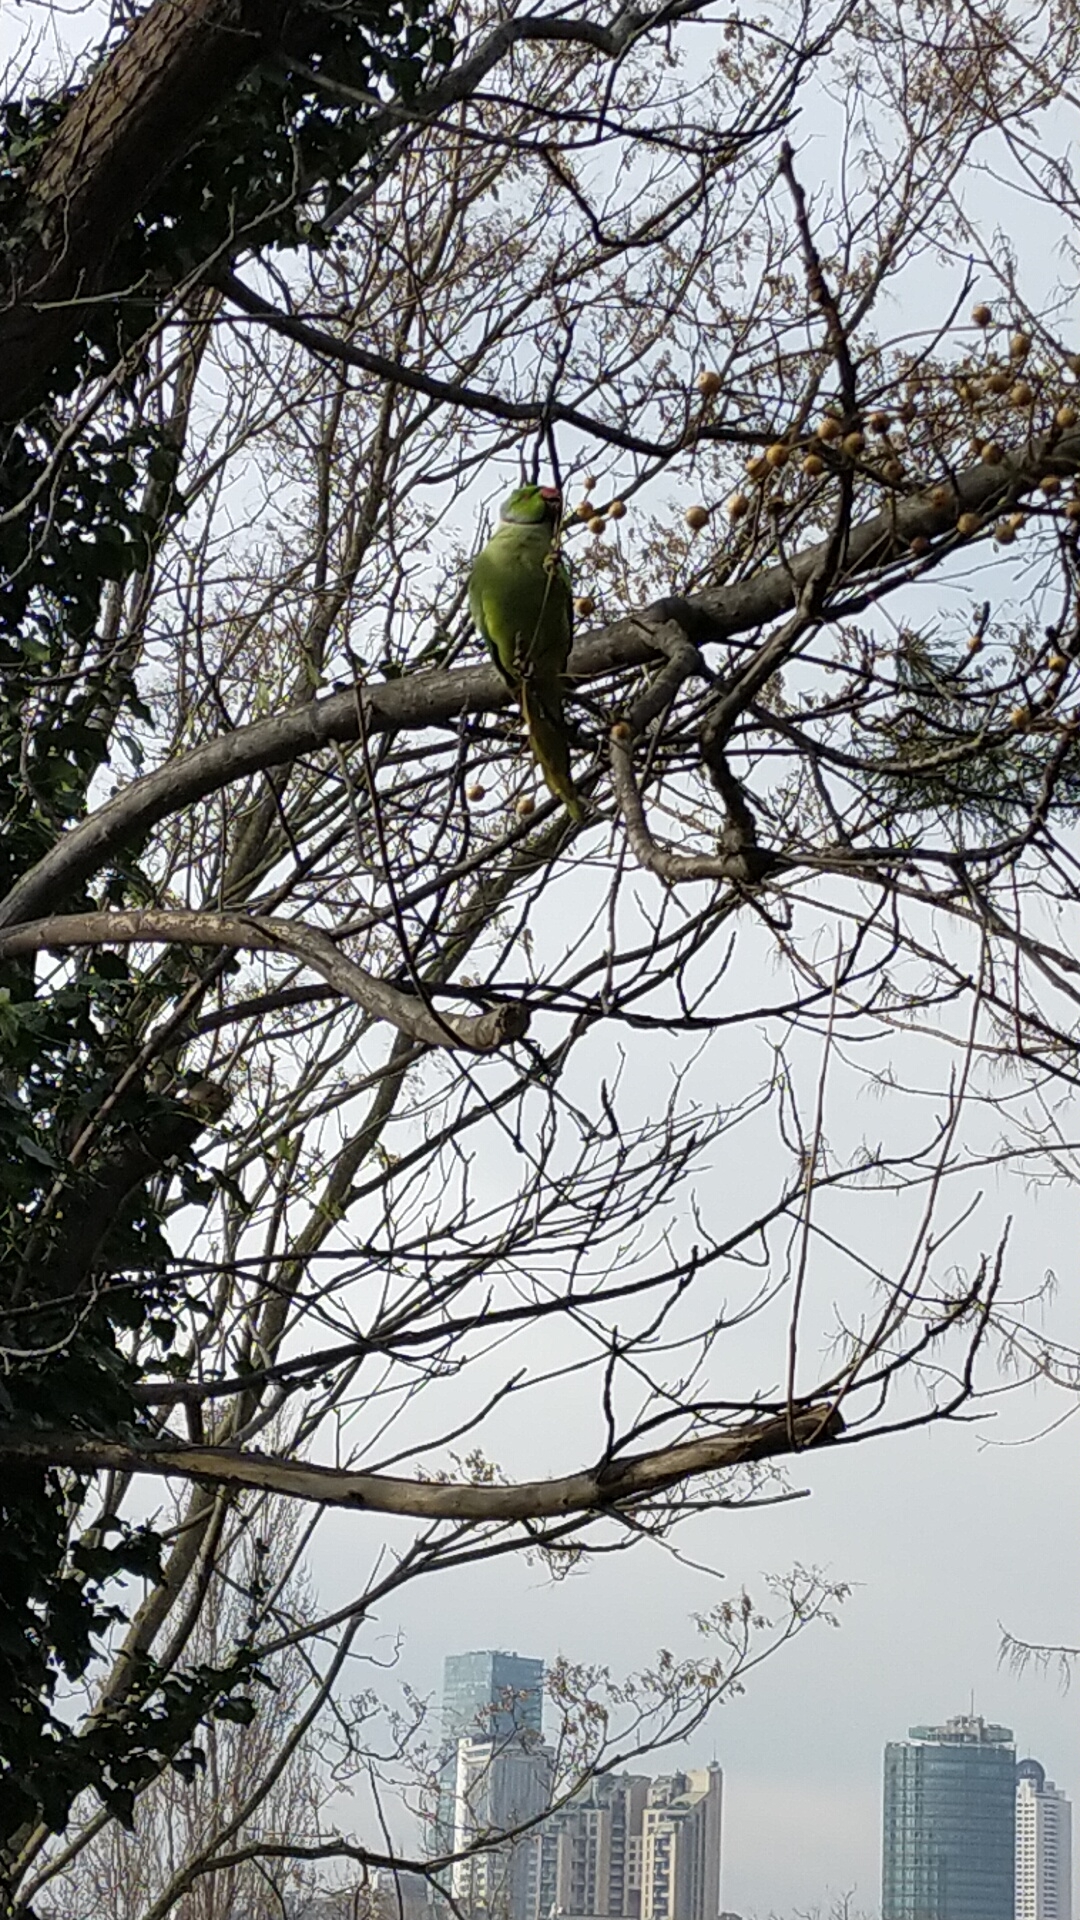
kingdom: Animalia
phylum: Chordata
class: Aves
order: Psittaciformes
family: Psittacidae
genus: Psittacula
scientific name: Psittacula krameri
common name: Rose-ringed parakeet
